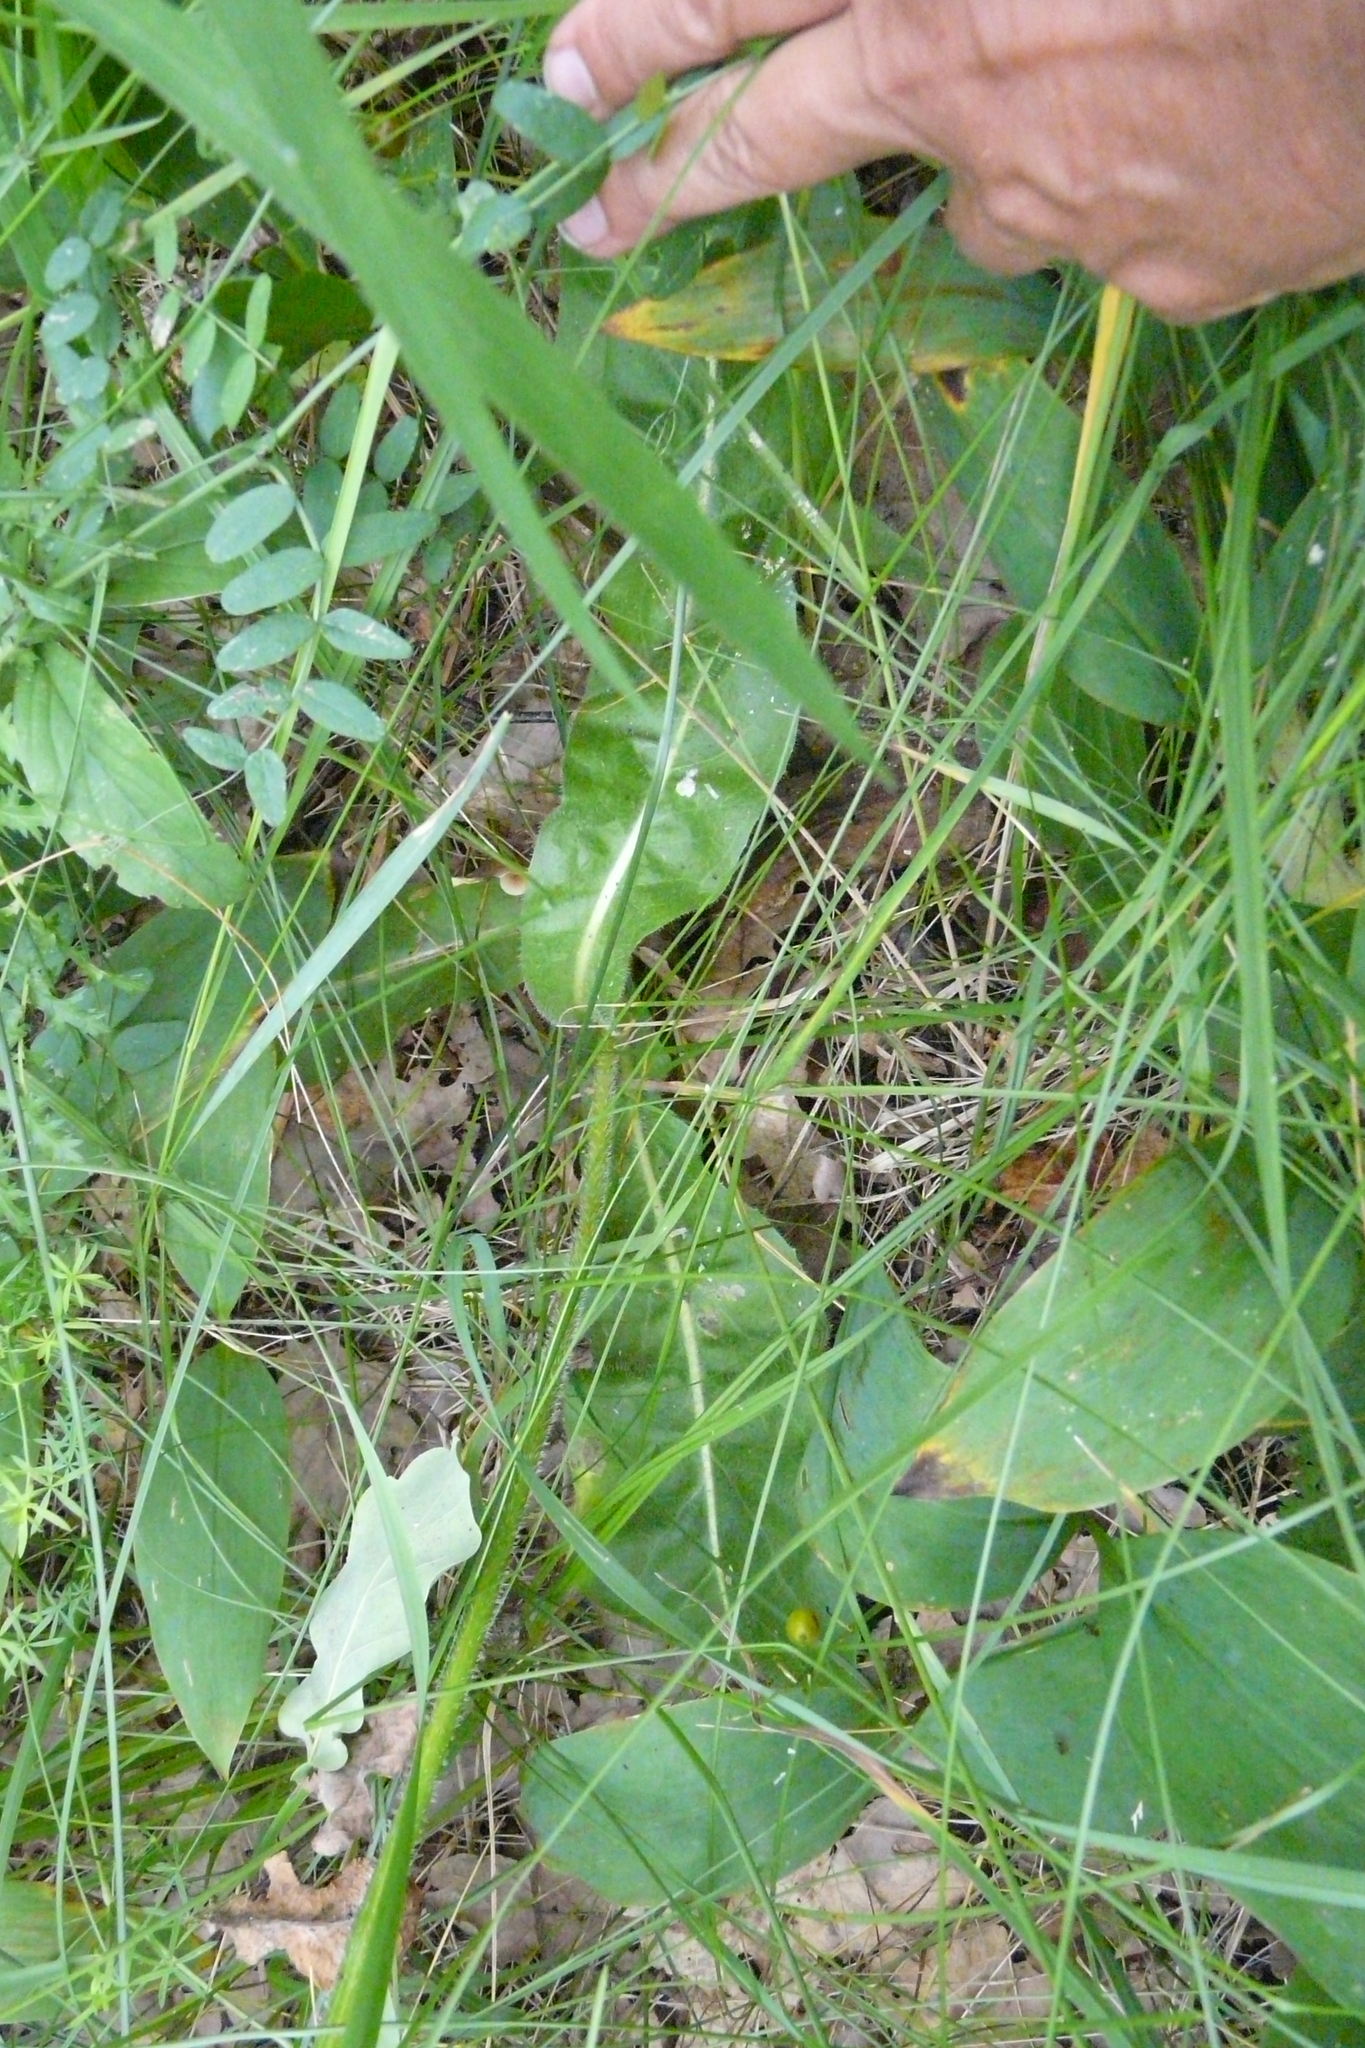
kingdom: Plantae
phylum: Tracheophyta
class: Magnoliopsida
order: Asterales
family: Asteraceae
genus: Trommsdorffia
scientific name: Trommsdorffia maculata
